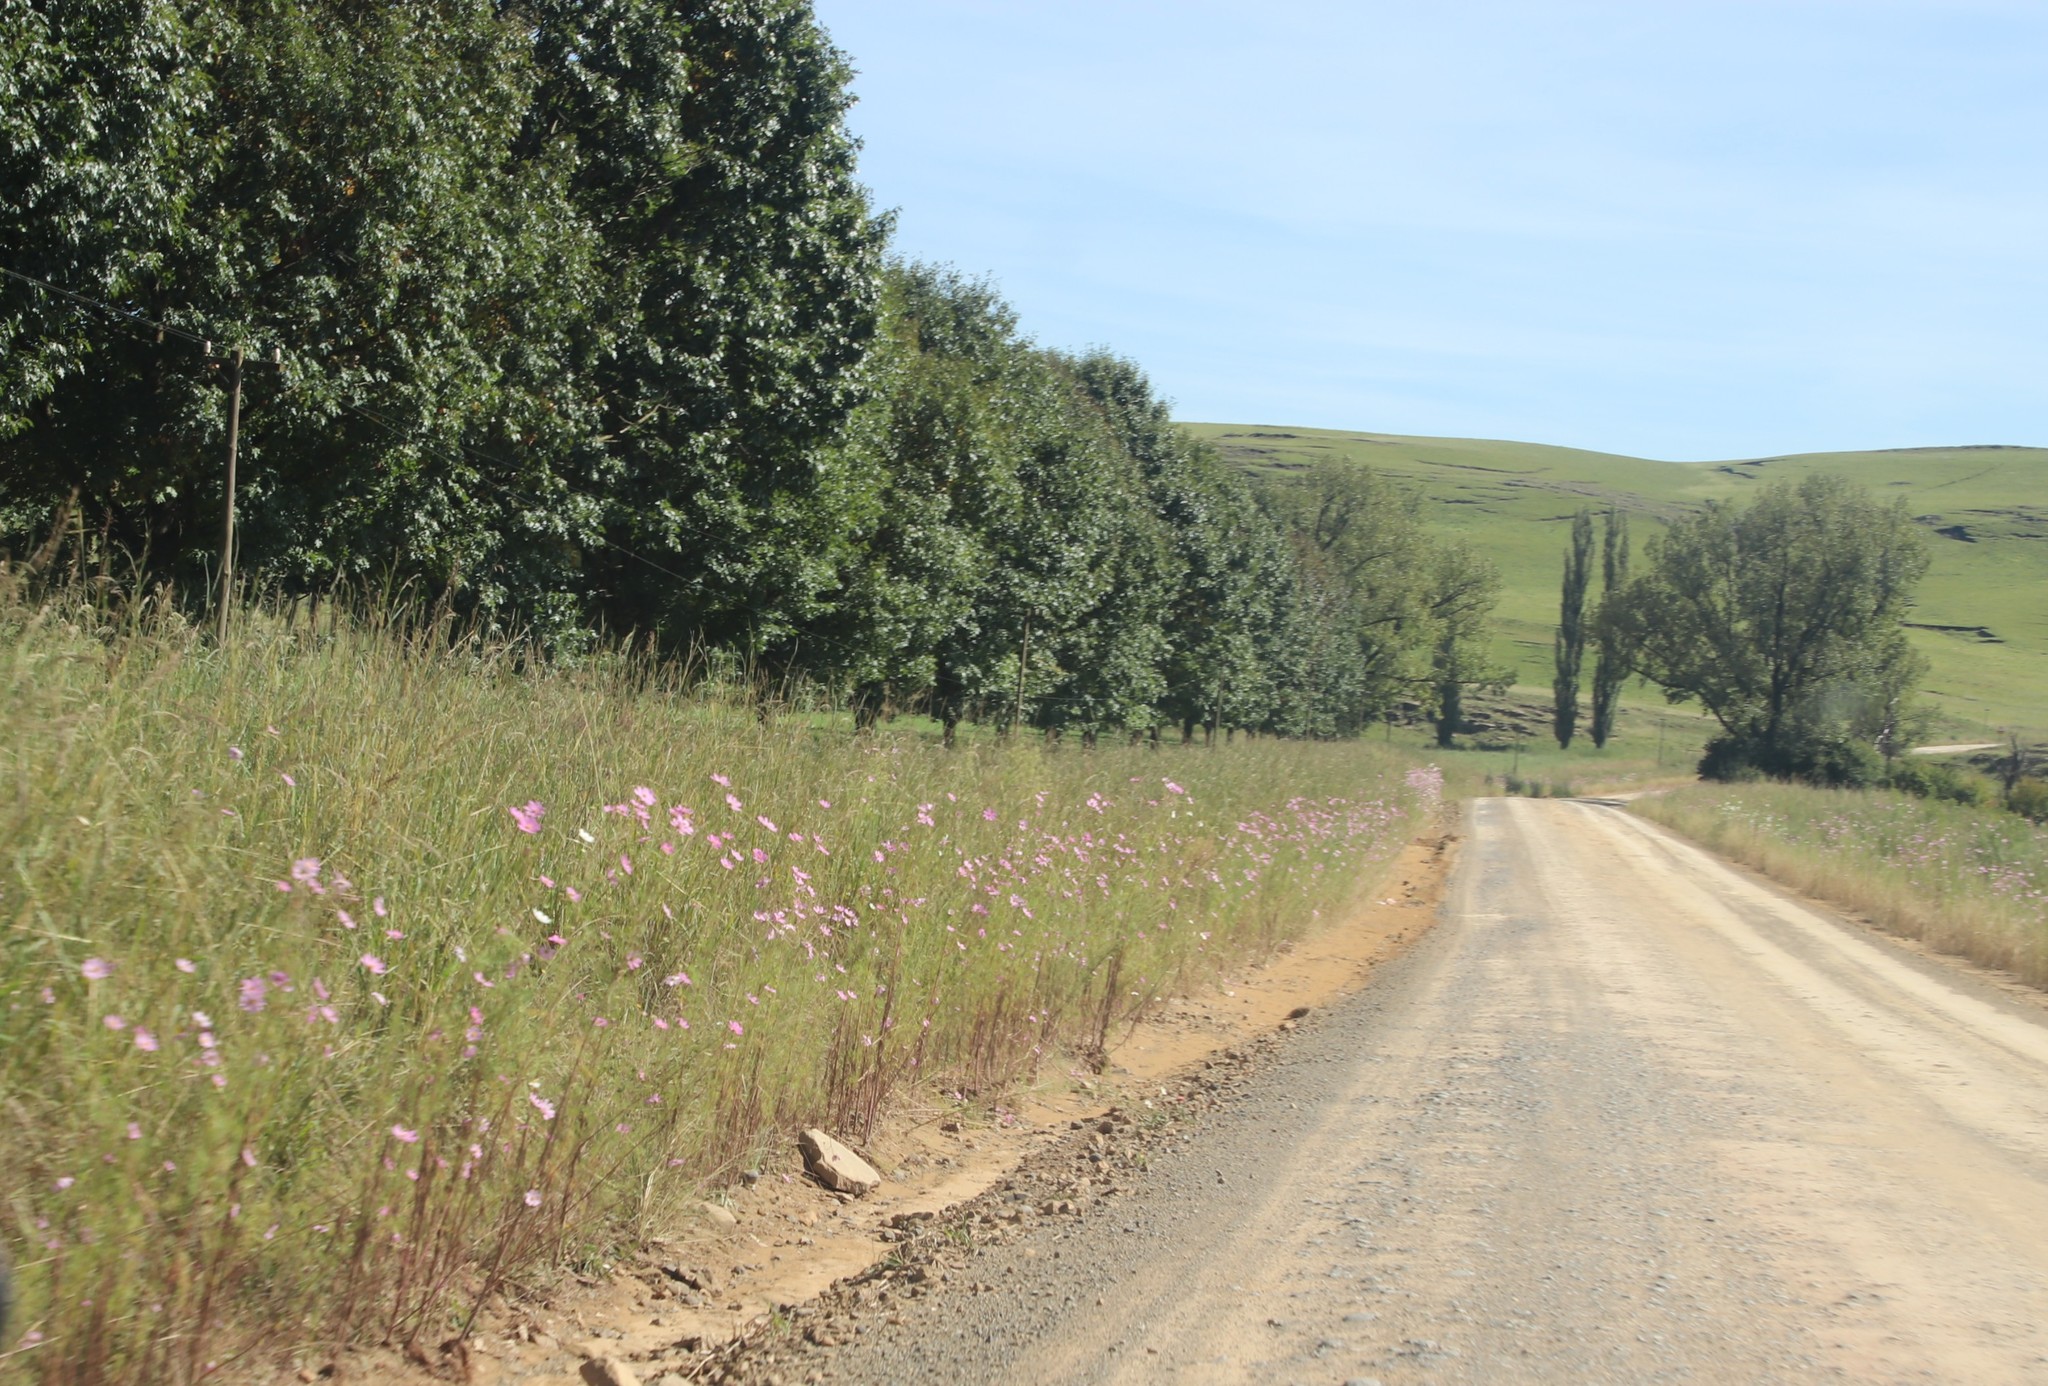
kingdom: Plantae
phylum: Tracheophyta
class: Magnoliopsida
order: Asterales
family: Asteraceae
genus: Cosmos
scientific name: Cosmos bipinnatus
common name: Garden cosmos
